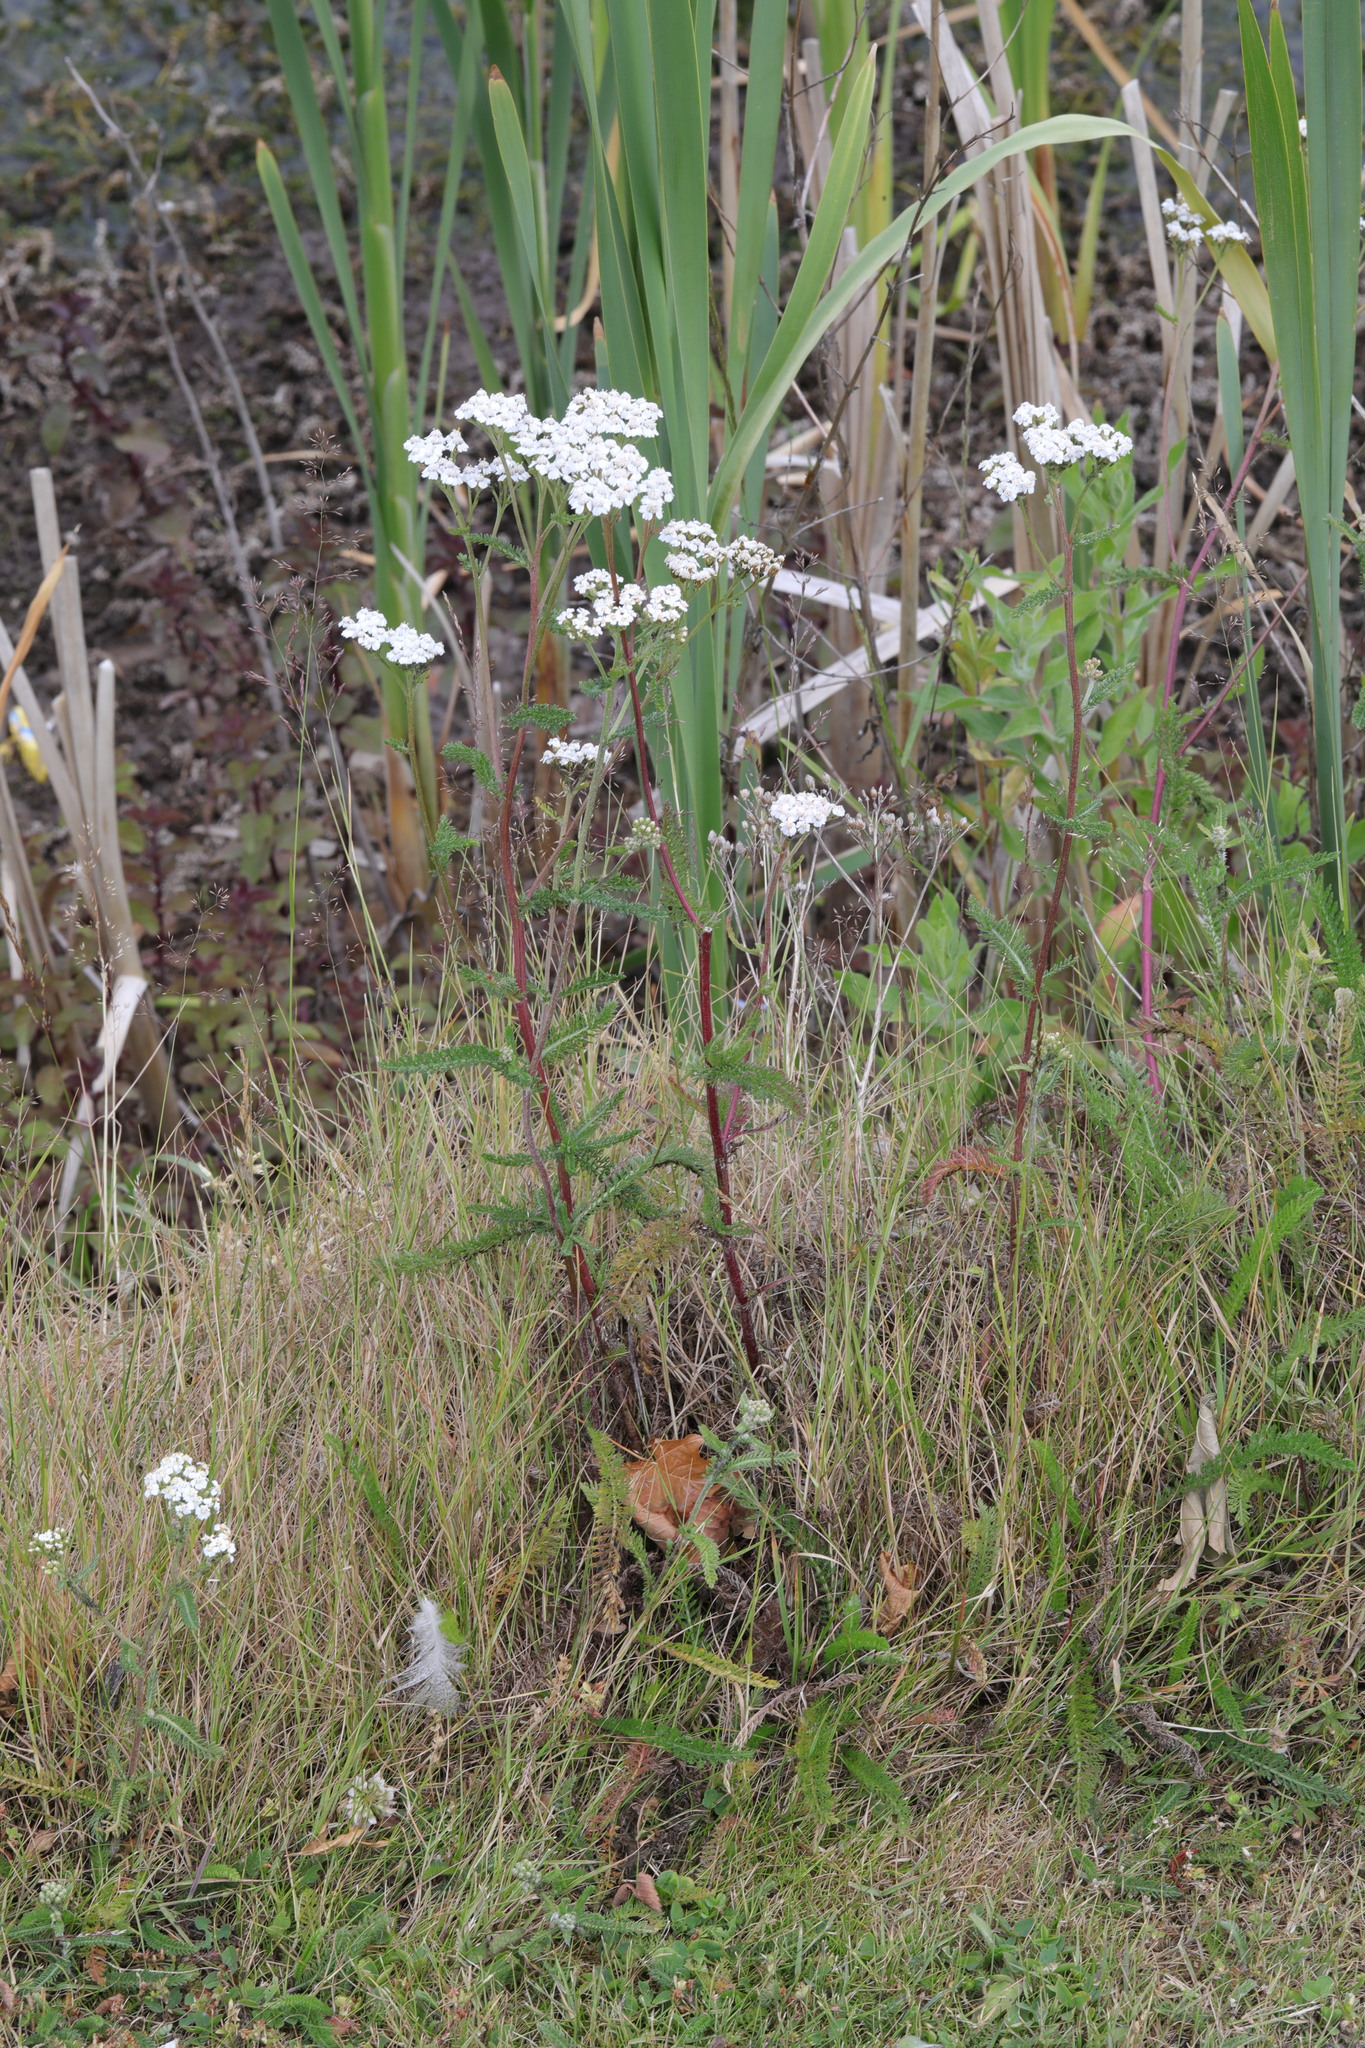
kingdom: Plantae
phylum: Tracheophyta
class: Magnoliopsida
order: Asterales
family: Asteraceae
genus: Achillea
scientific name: Achillea millefolium
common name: Yarrow
